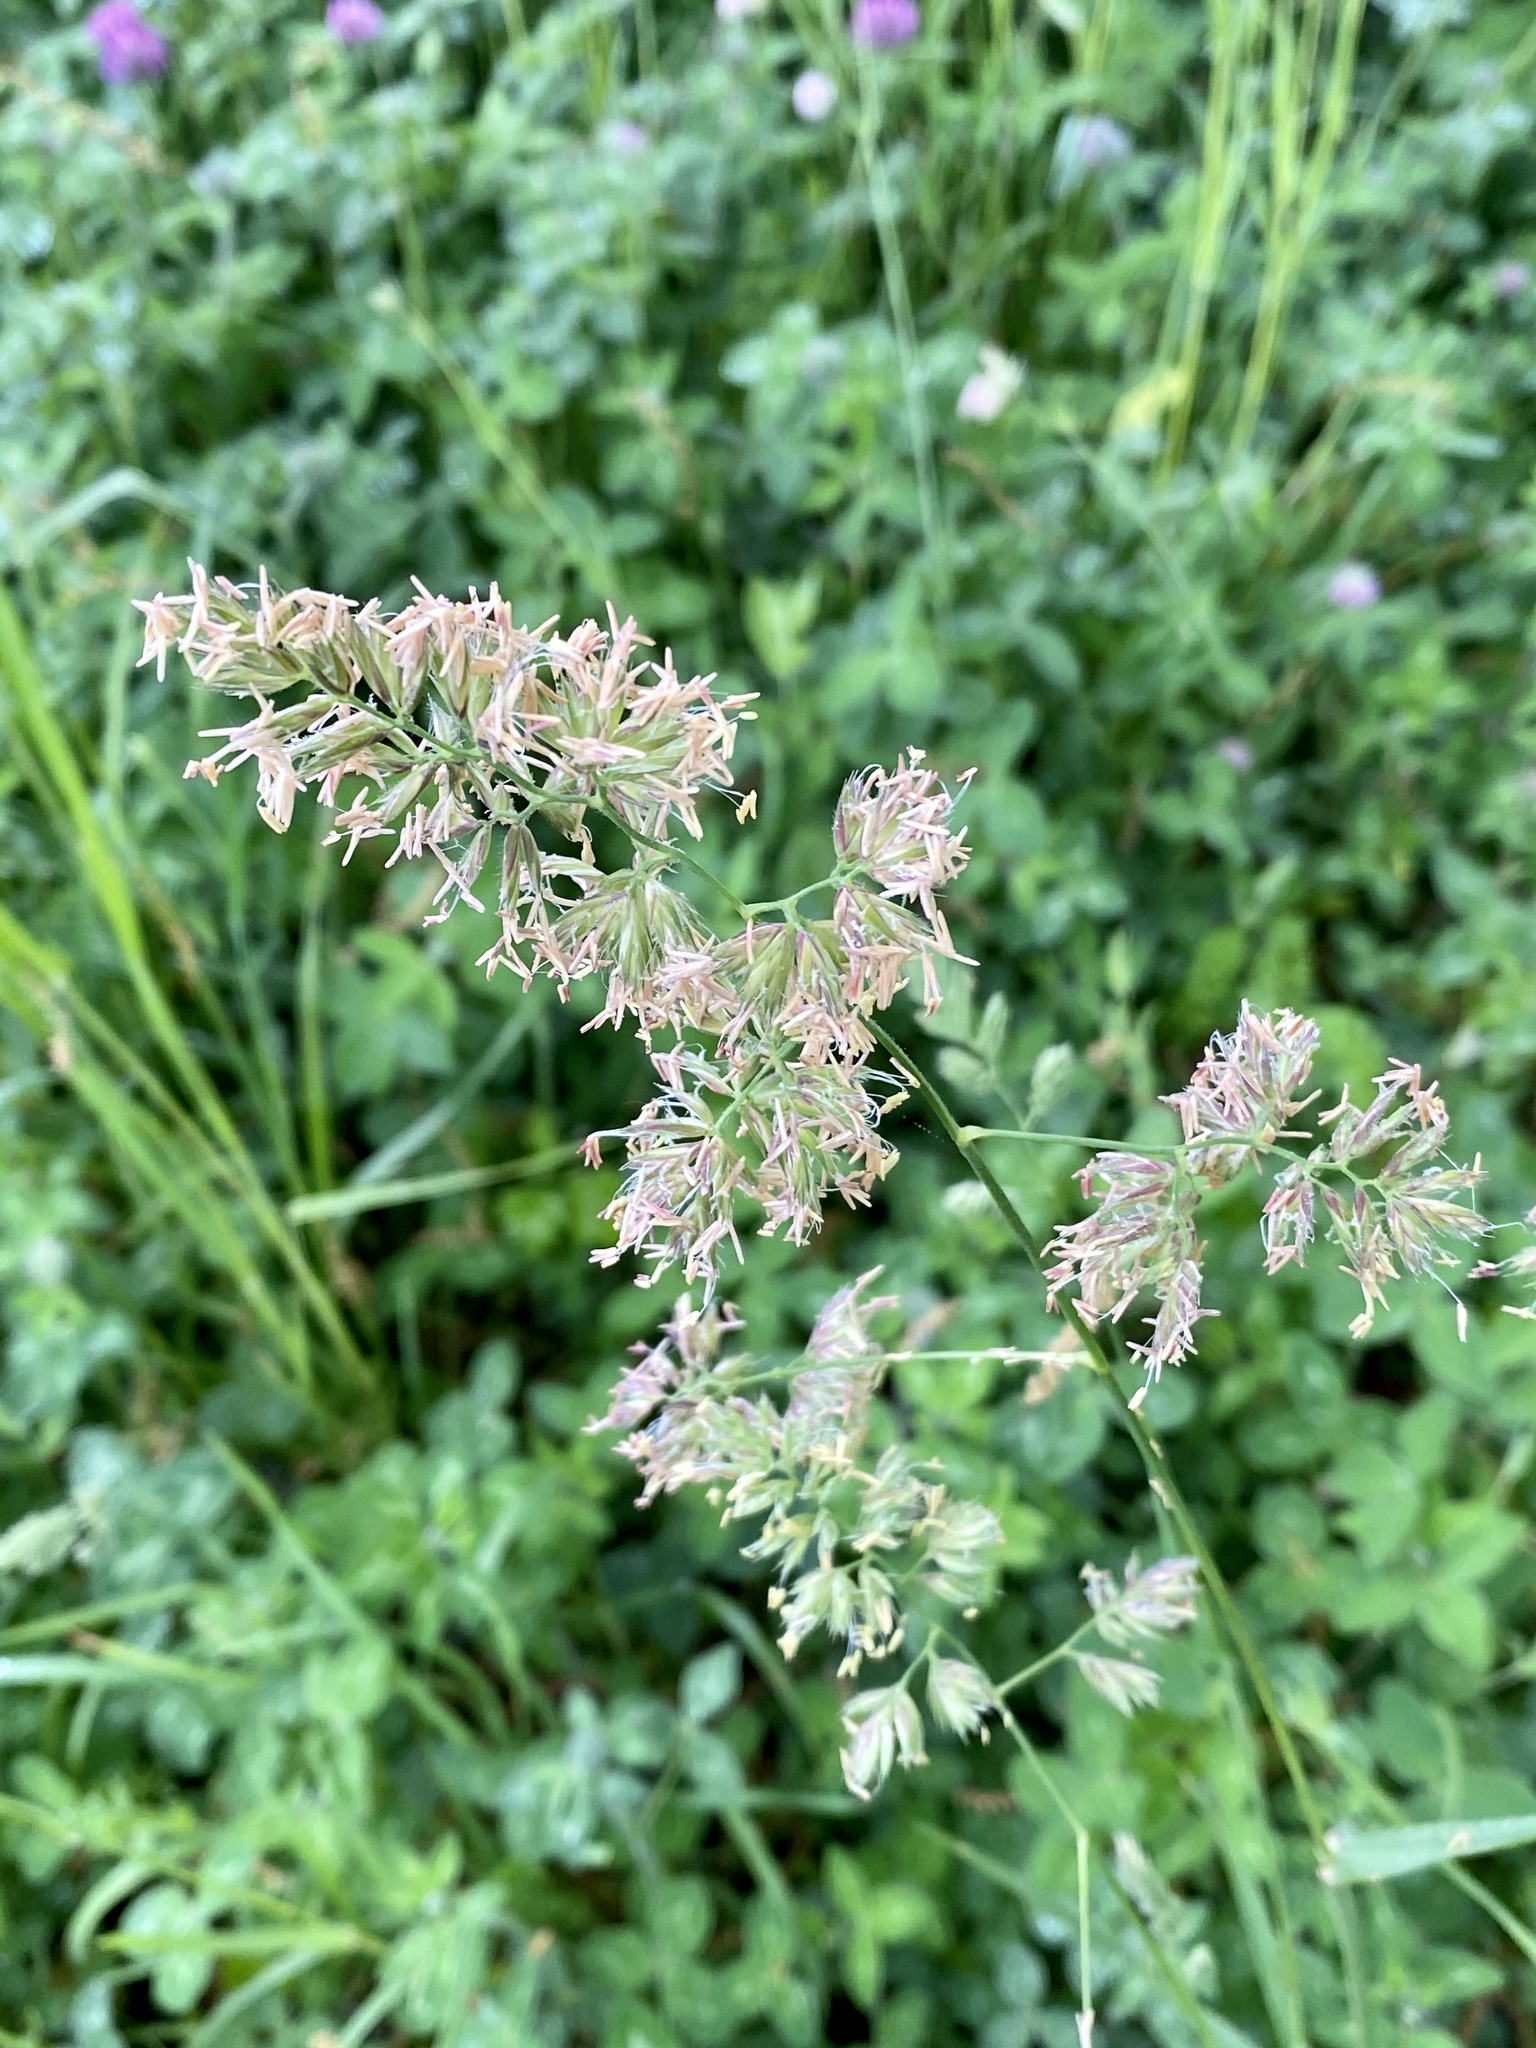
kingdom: Plantae
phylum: Tracheophyta
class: Liliopsida
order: Poales
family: Poaceae
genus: Dactylis
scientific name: Dactylis glomerata
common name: Orchardgrass
